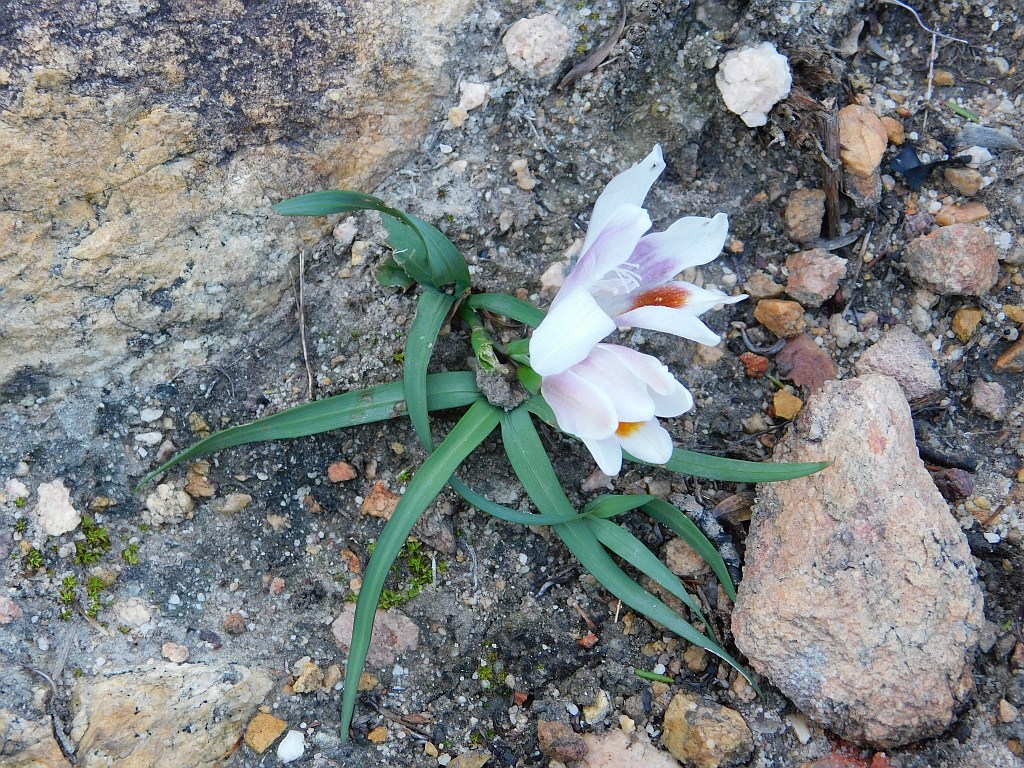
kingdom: Plantae
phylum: Tracheophyta
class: Liliopsida
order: Asparagales
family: Iridaceae
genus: Freesia
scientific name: Freesia caryophyllacea
